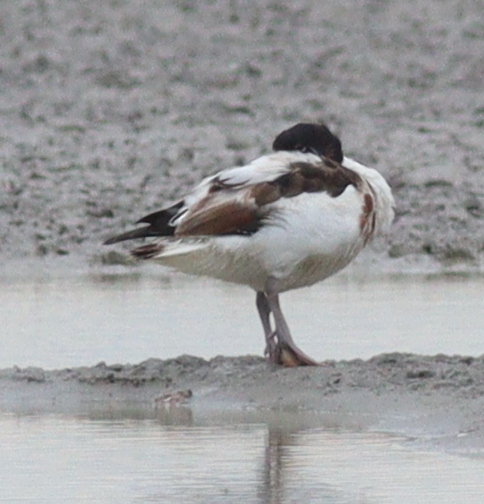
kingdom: Animalia
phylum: Chordata
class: Aves
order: Anseriformes
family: Anatidae
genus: Tadorna
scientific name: Tadorna tadorna
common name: Common shelduck
